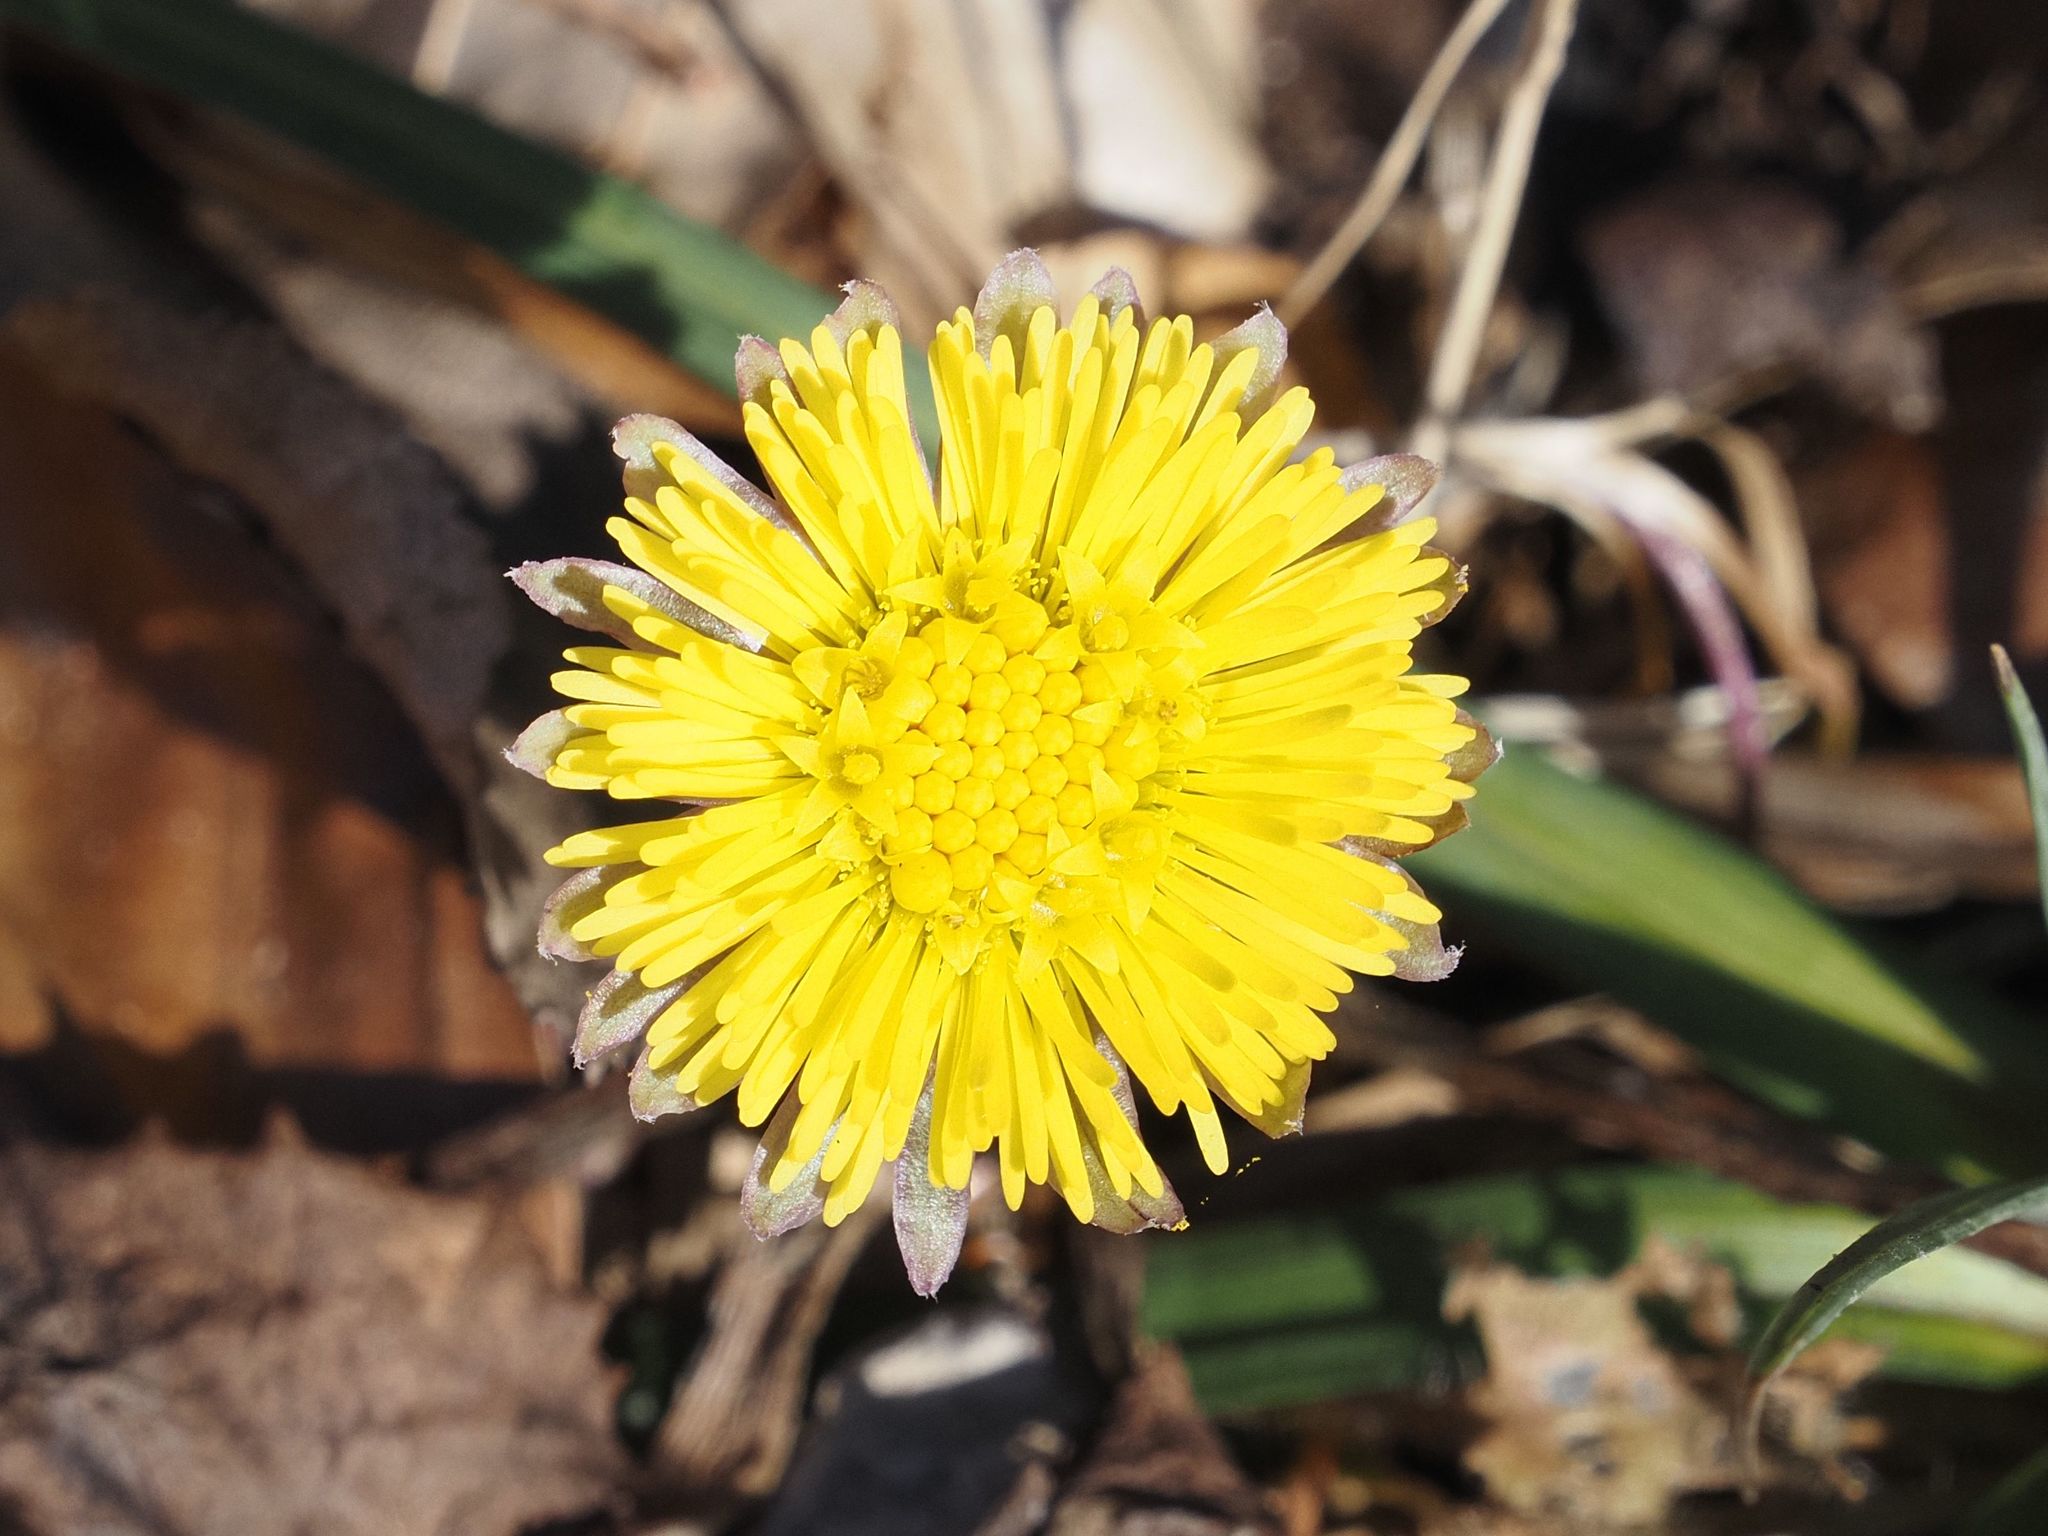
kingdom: Plantae
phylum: Tracheophyta
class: Magnoliopsida
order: Asterales
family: Asteraceae
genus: Tussilago
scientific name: Tussilago farfara
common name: Coltsfoot
